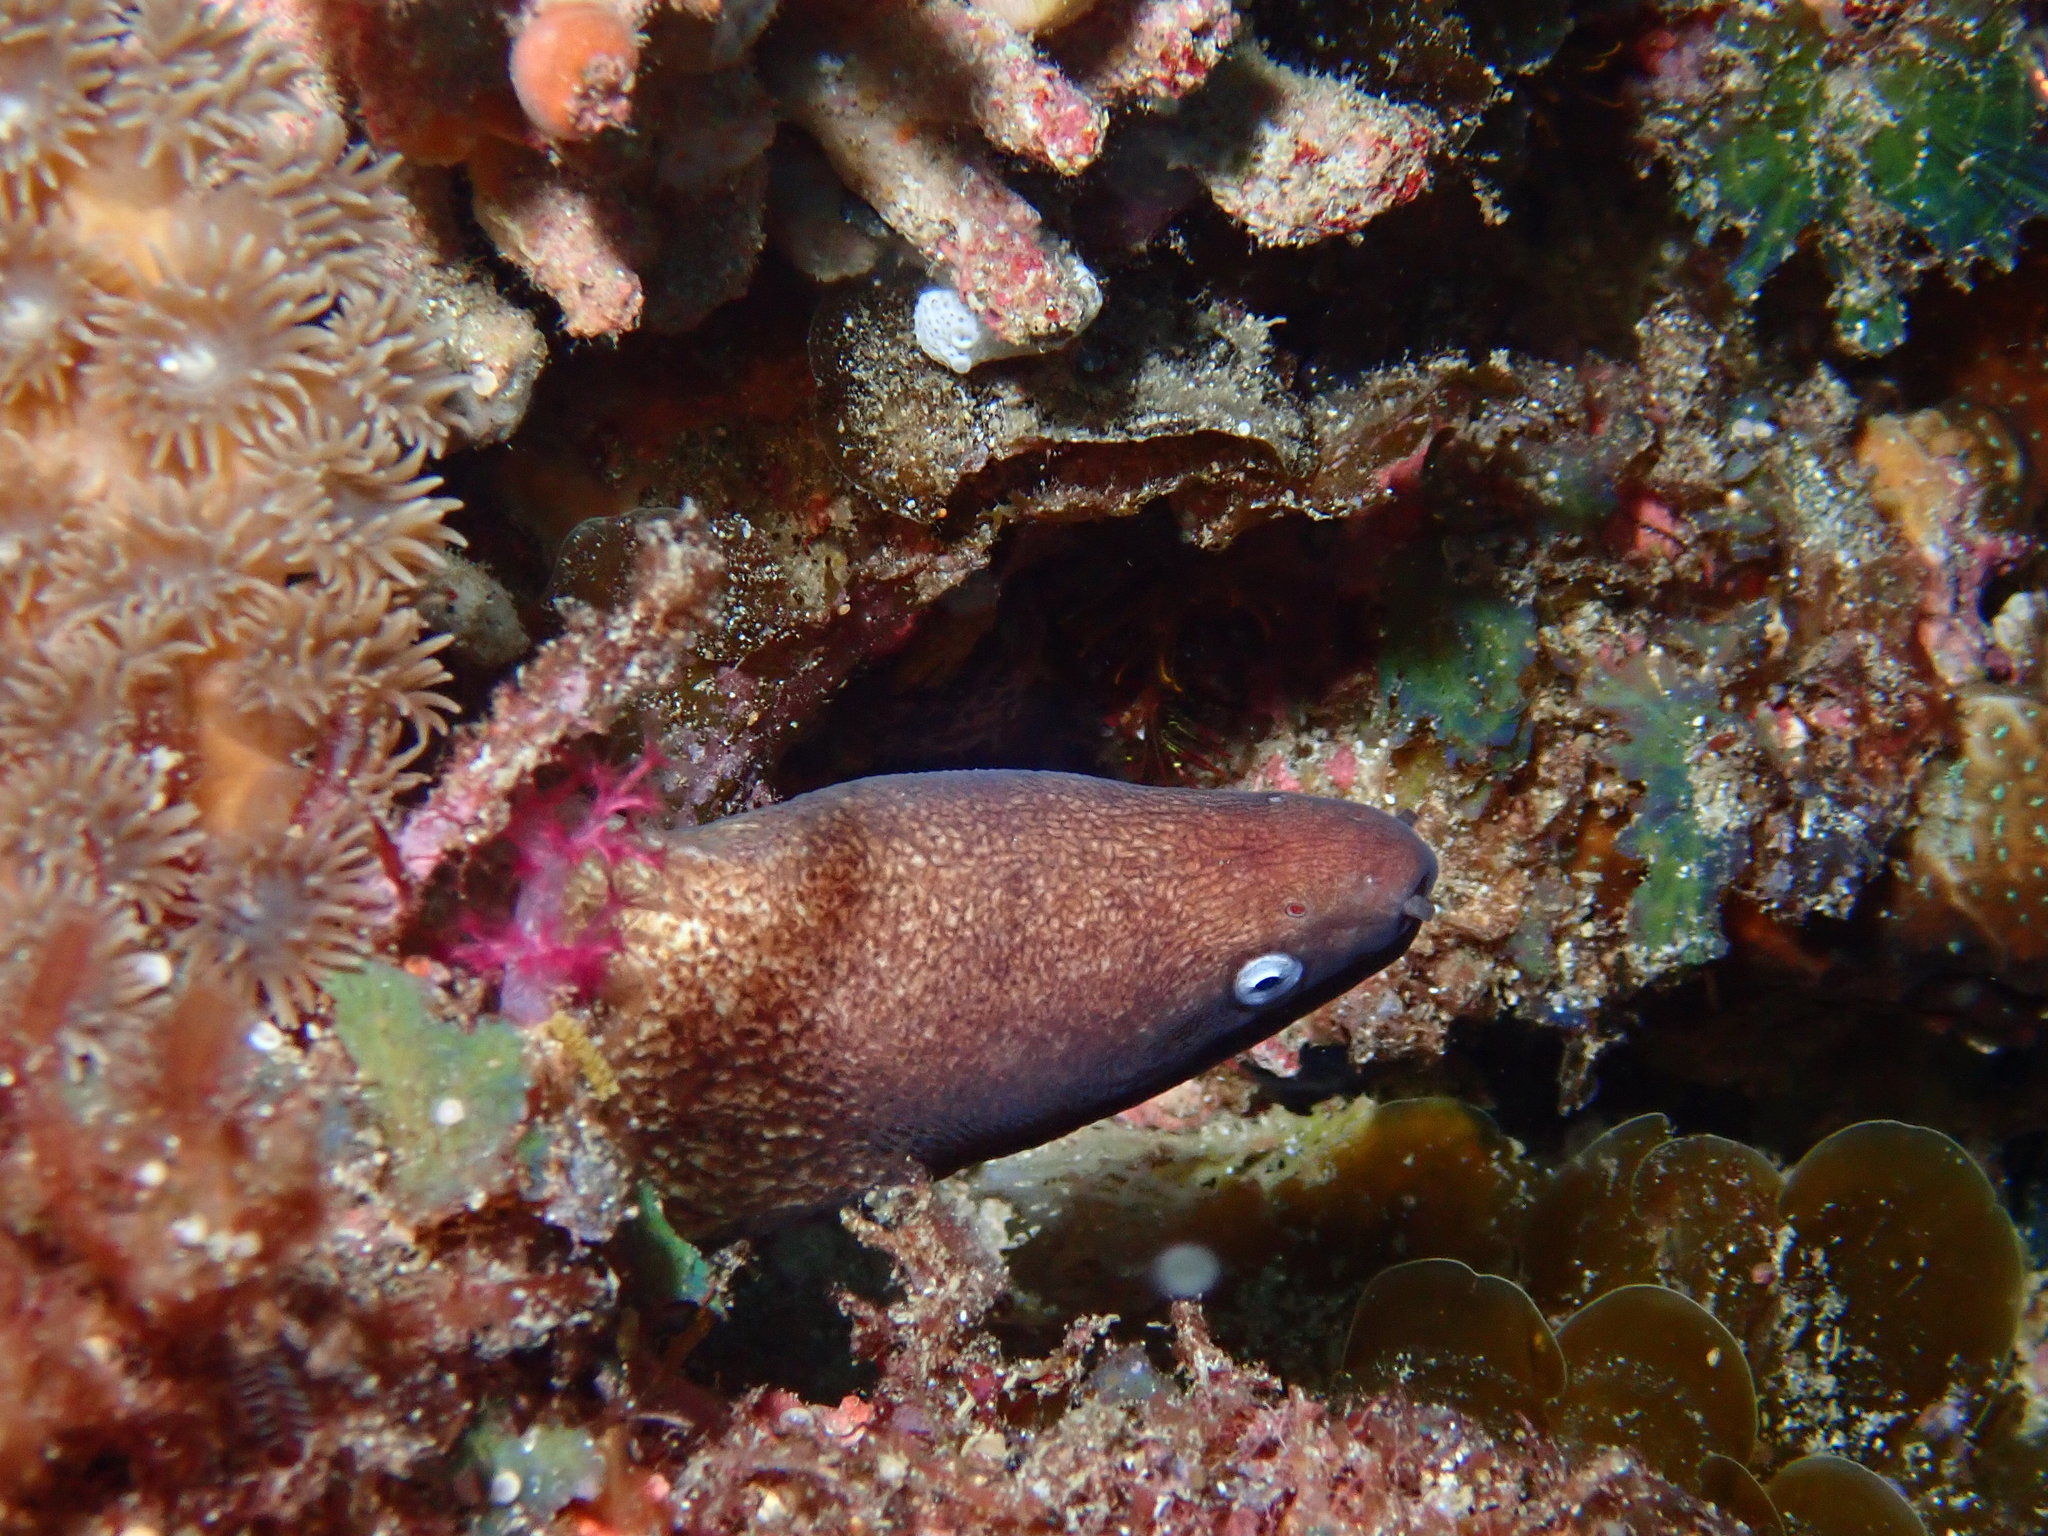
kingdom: Animalia
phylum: Chordata
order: Anguilliformes
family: Muraenidae
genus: Gymnothorax
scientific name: Gymnothorax thyrsoideus
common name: Greyface moray
